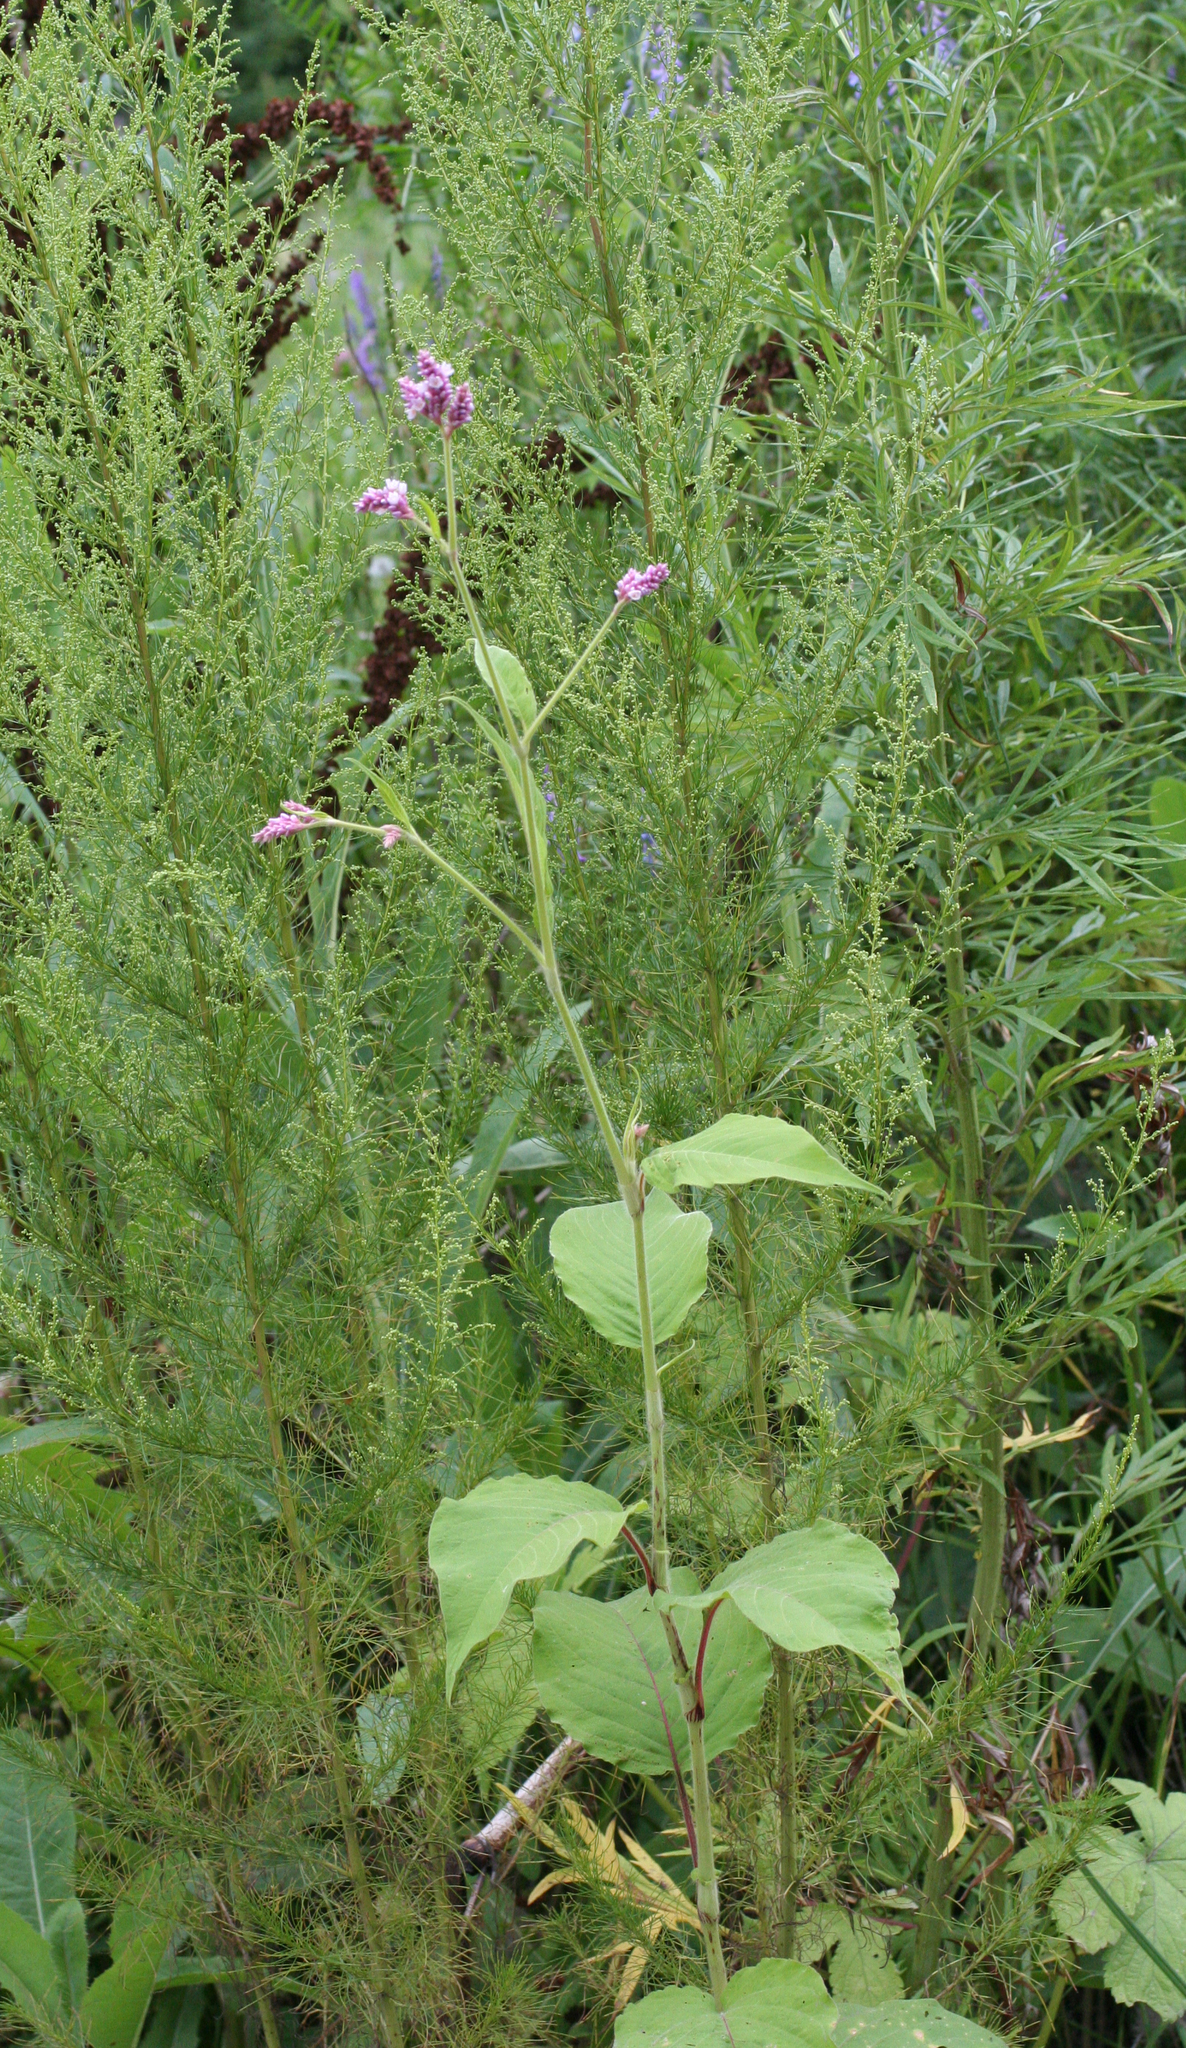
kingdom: Plantae
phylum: Tracheophyta
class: Magnoliopsida
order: Caryophyllales
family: Polygonaceae
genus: Persicaria
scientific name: Persicaria orientalis
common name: Kiss-me-over-the-garden-gate
